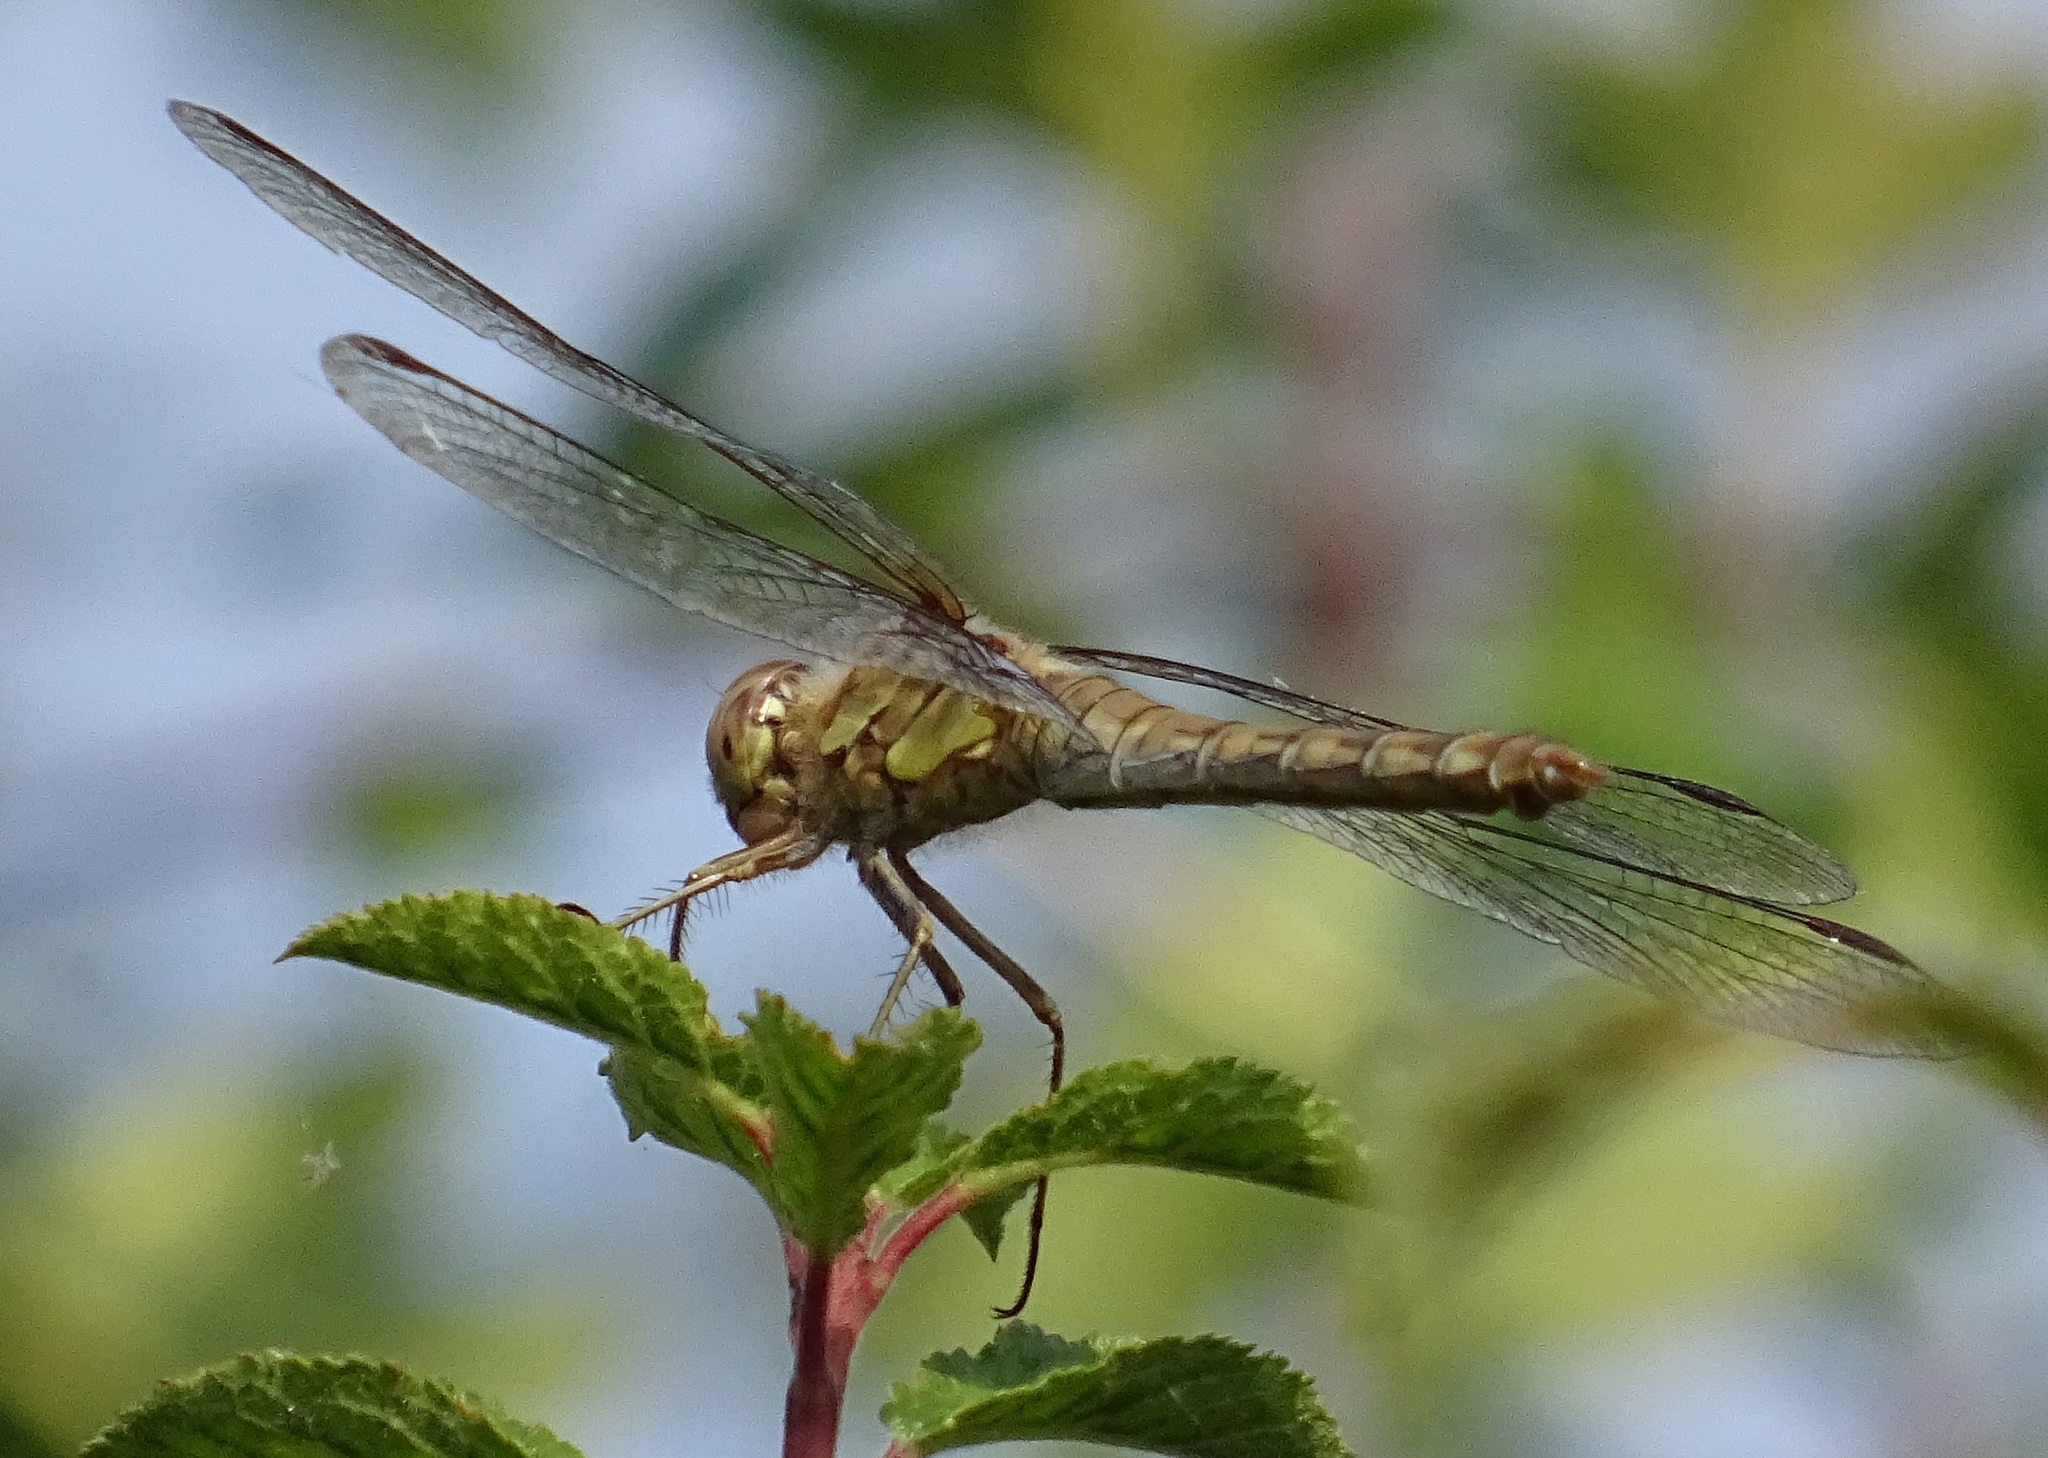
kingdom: Animalia
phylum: Arthropoda
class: Insecta
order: Odonata
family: Libellulidae
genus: Sympetrum
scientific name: Sympetrum striolatum
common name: Common darter
